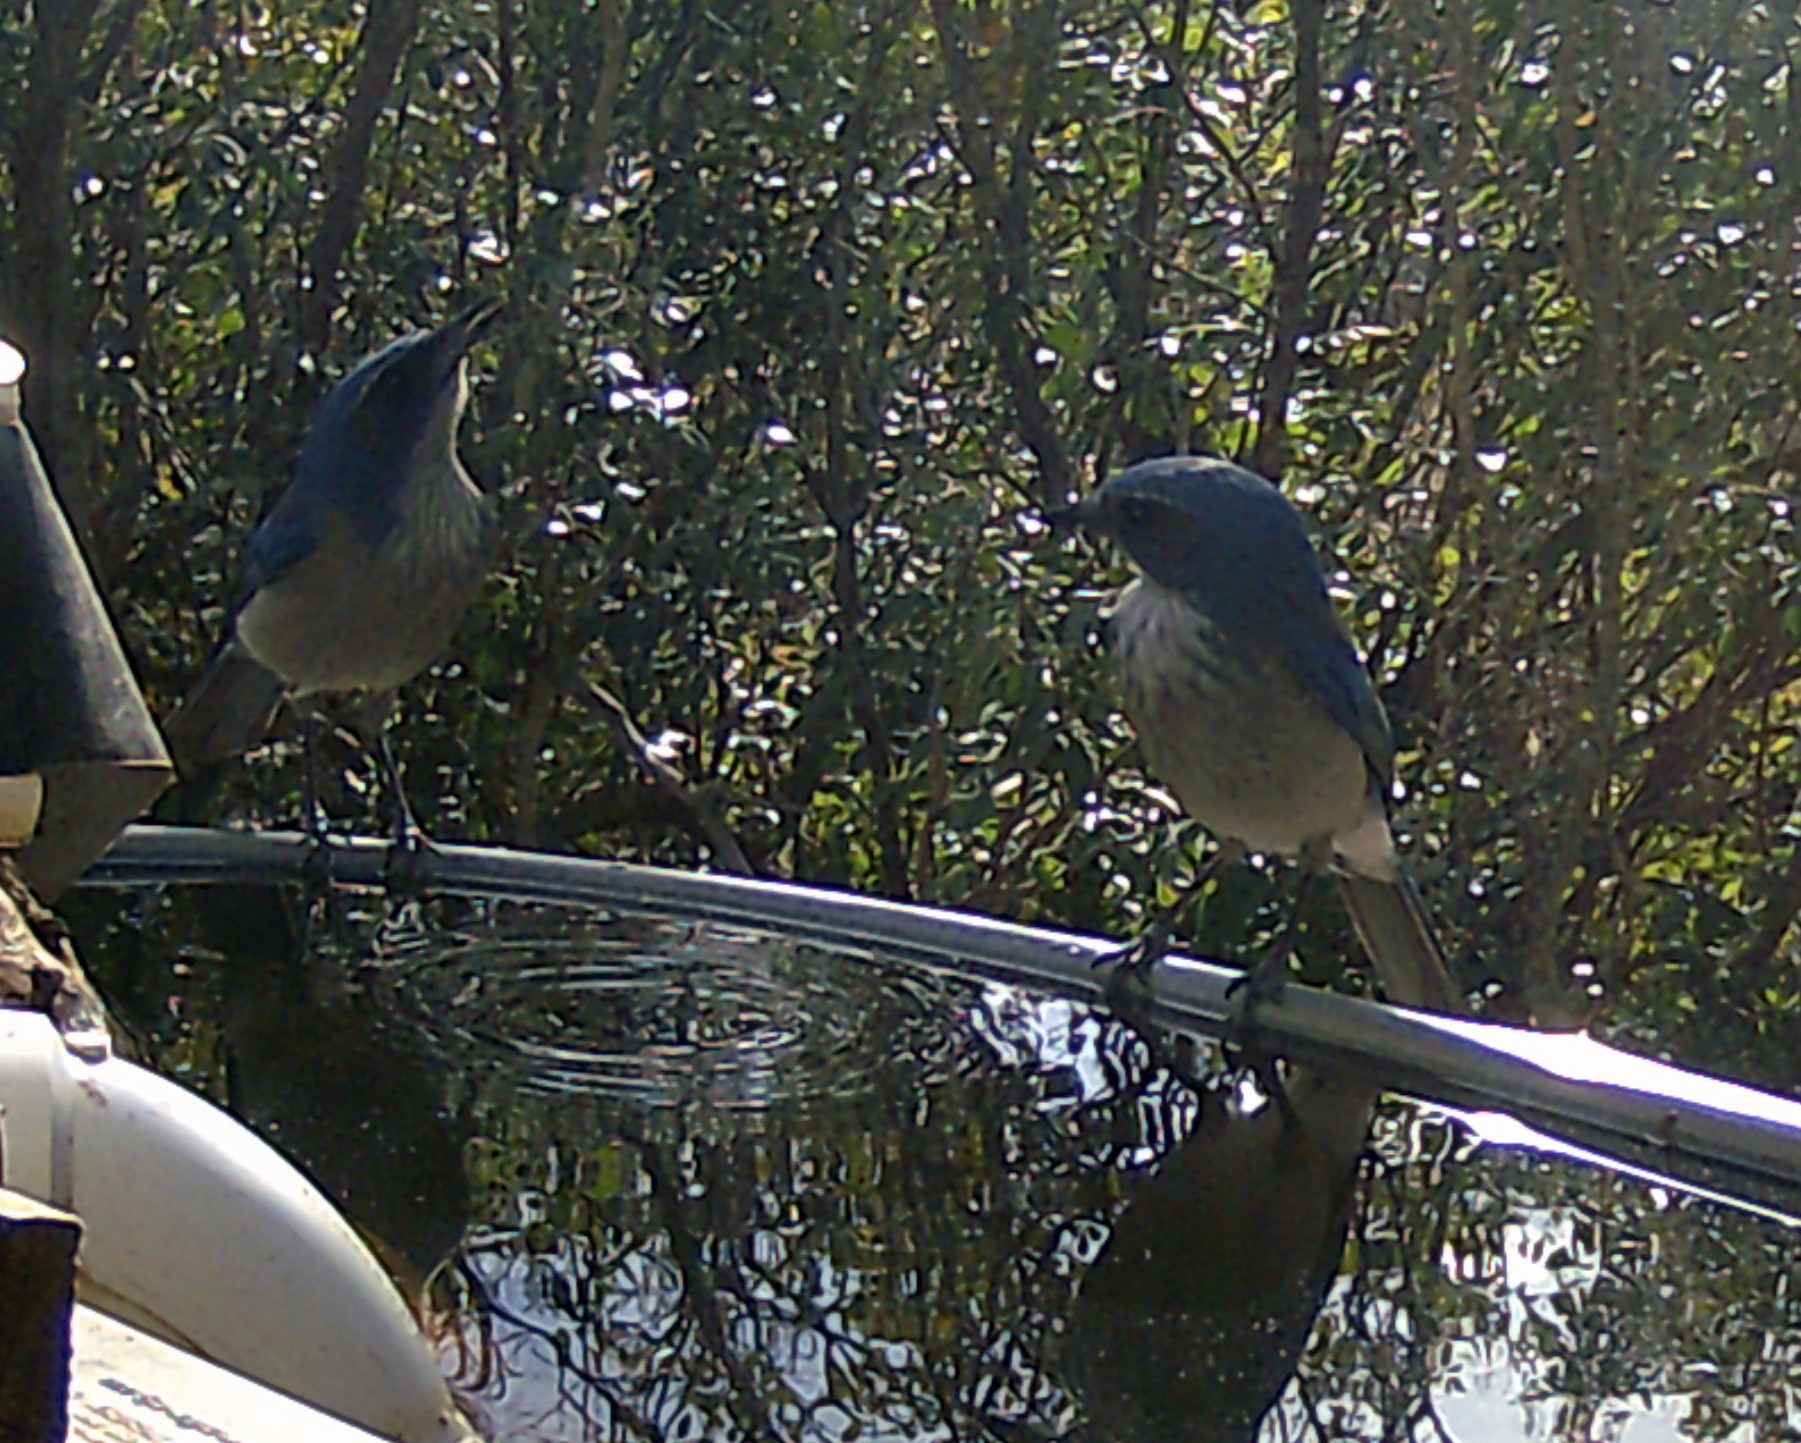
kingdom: Animalia
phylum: Chordata
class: Aves
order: Passeriformes
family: Corvidae
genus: Aphelocoma
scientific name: Aphelocoma woodhouseii
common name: Woodhouse's scrub-jay
